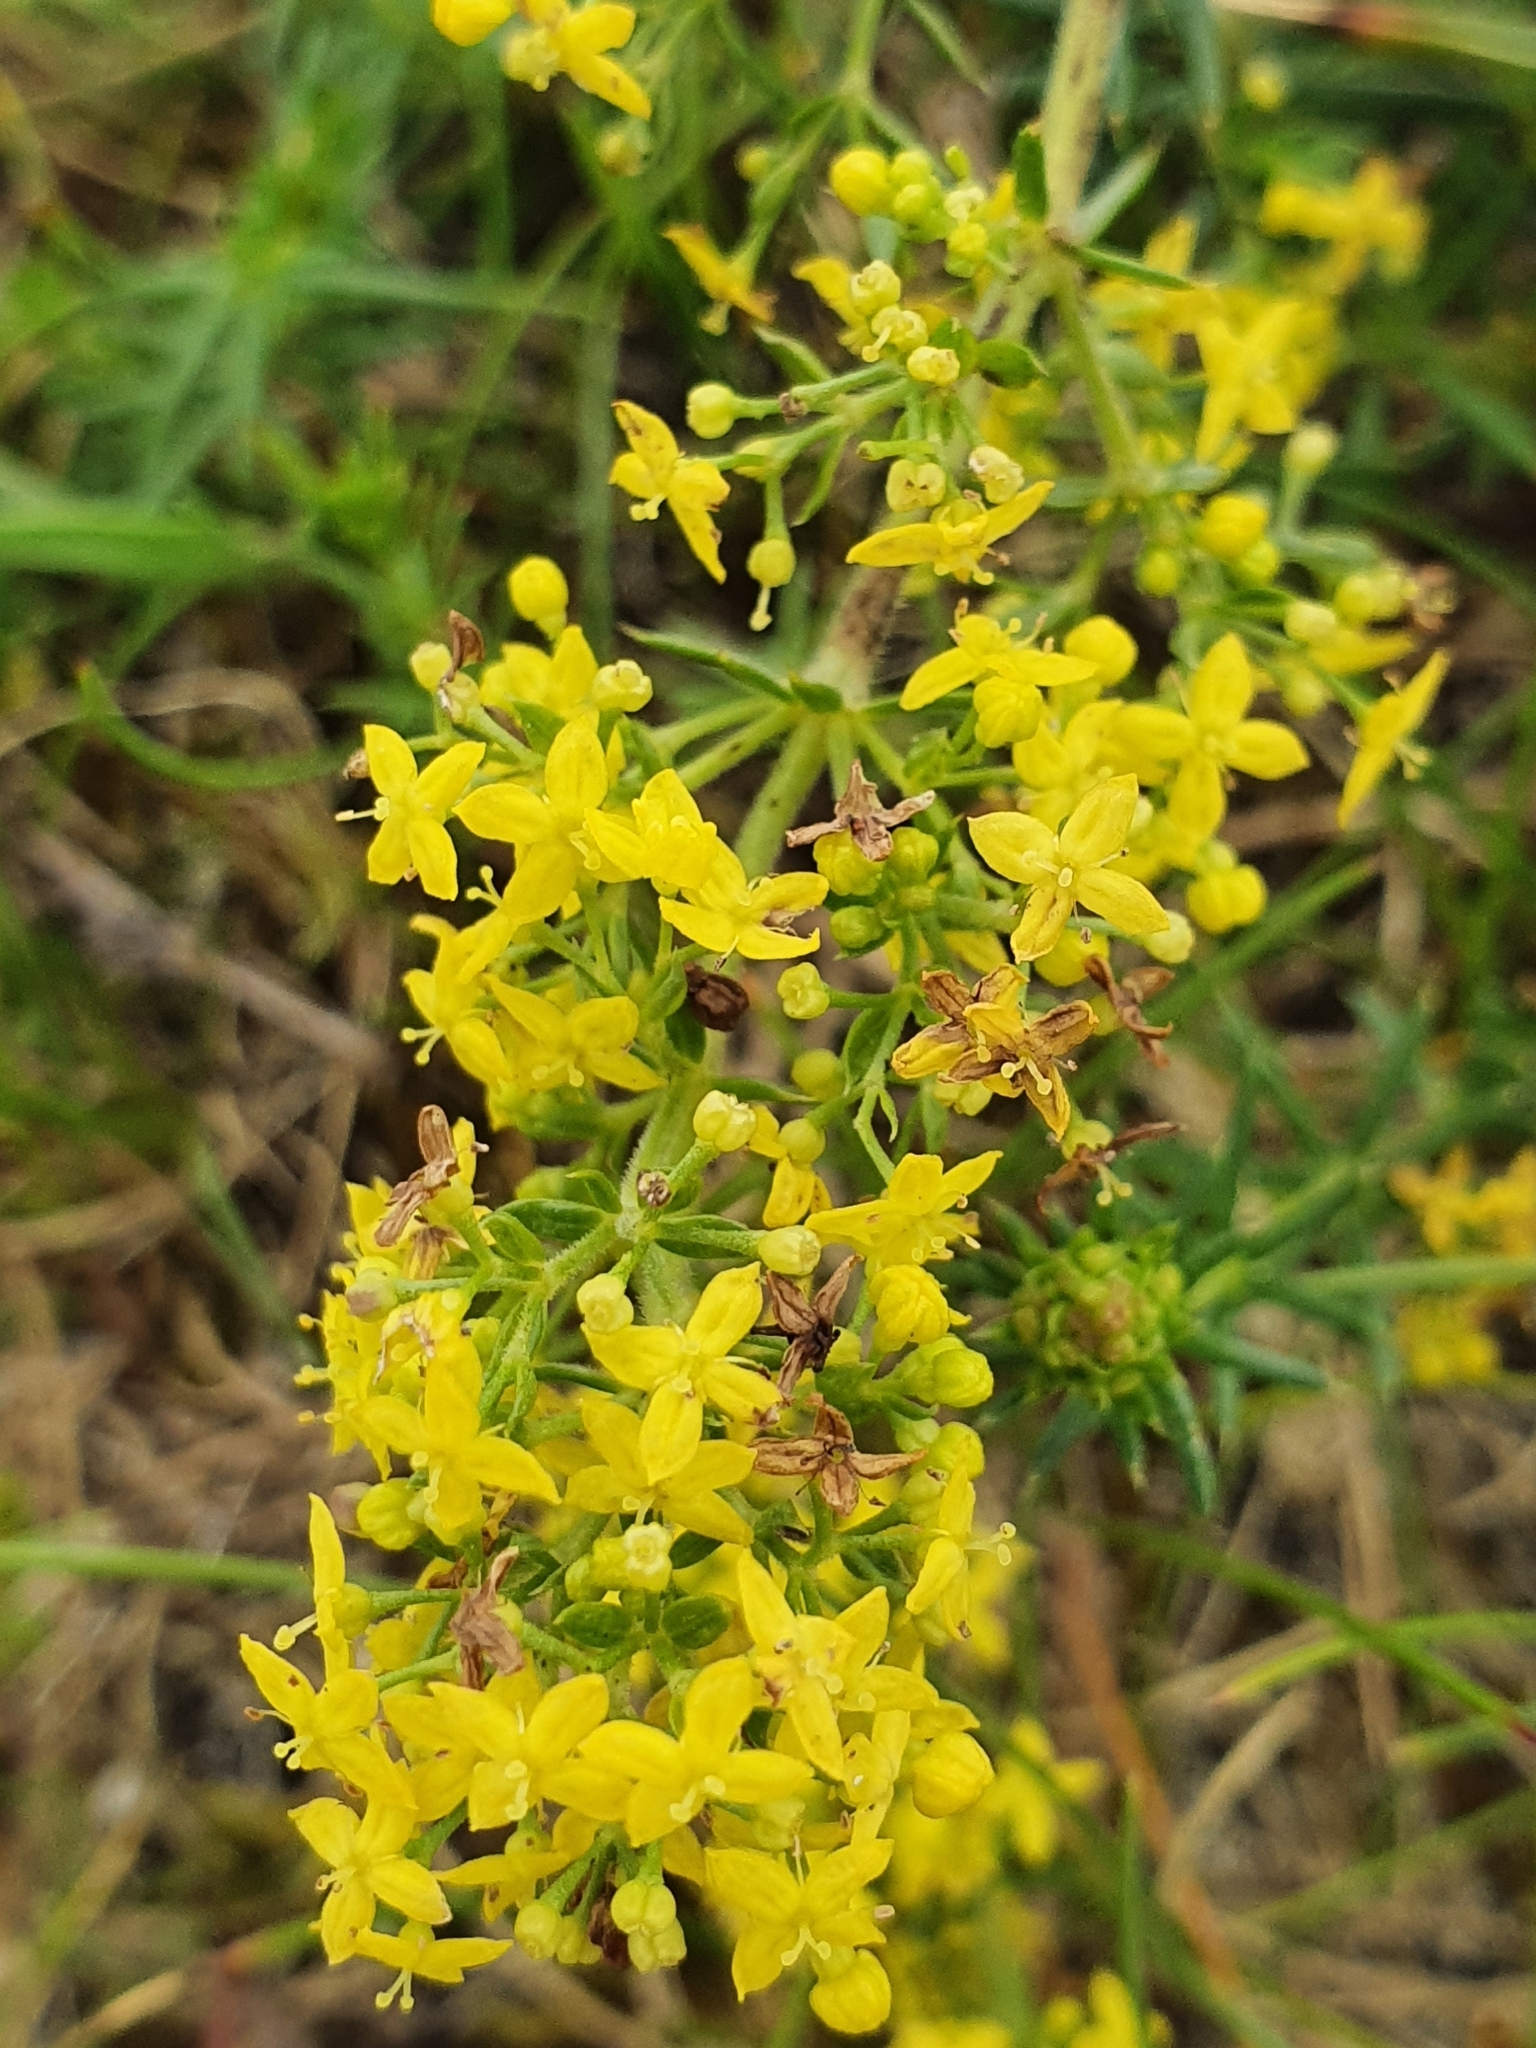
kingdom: Plantae
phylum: Tracheophyta
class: Magnoliopsida
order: Gentianales
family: Rubiaceae
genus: Galium
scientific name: Galium verum
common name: Lady's bedstraw
